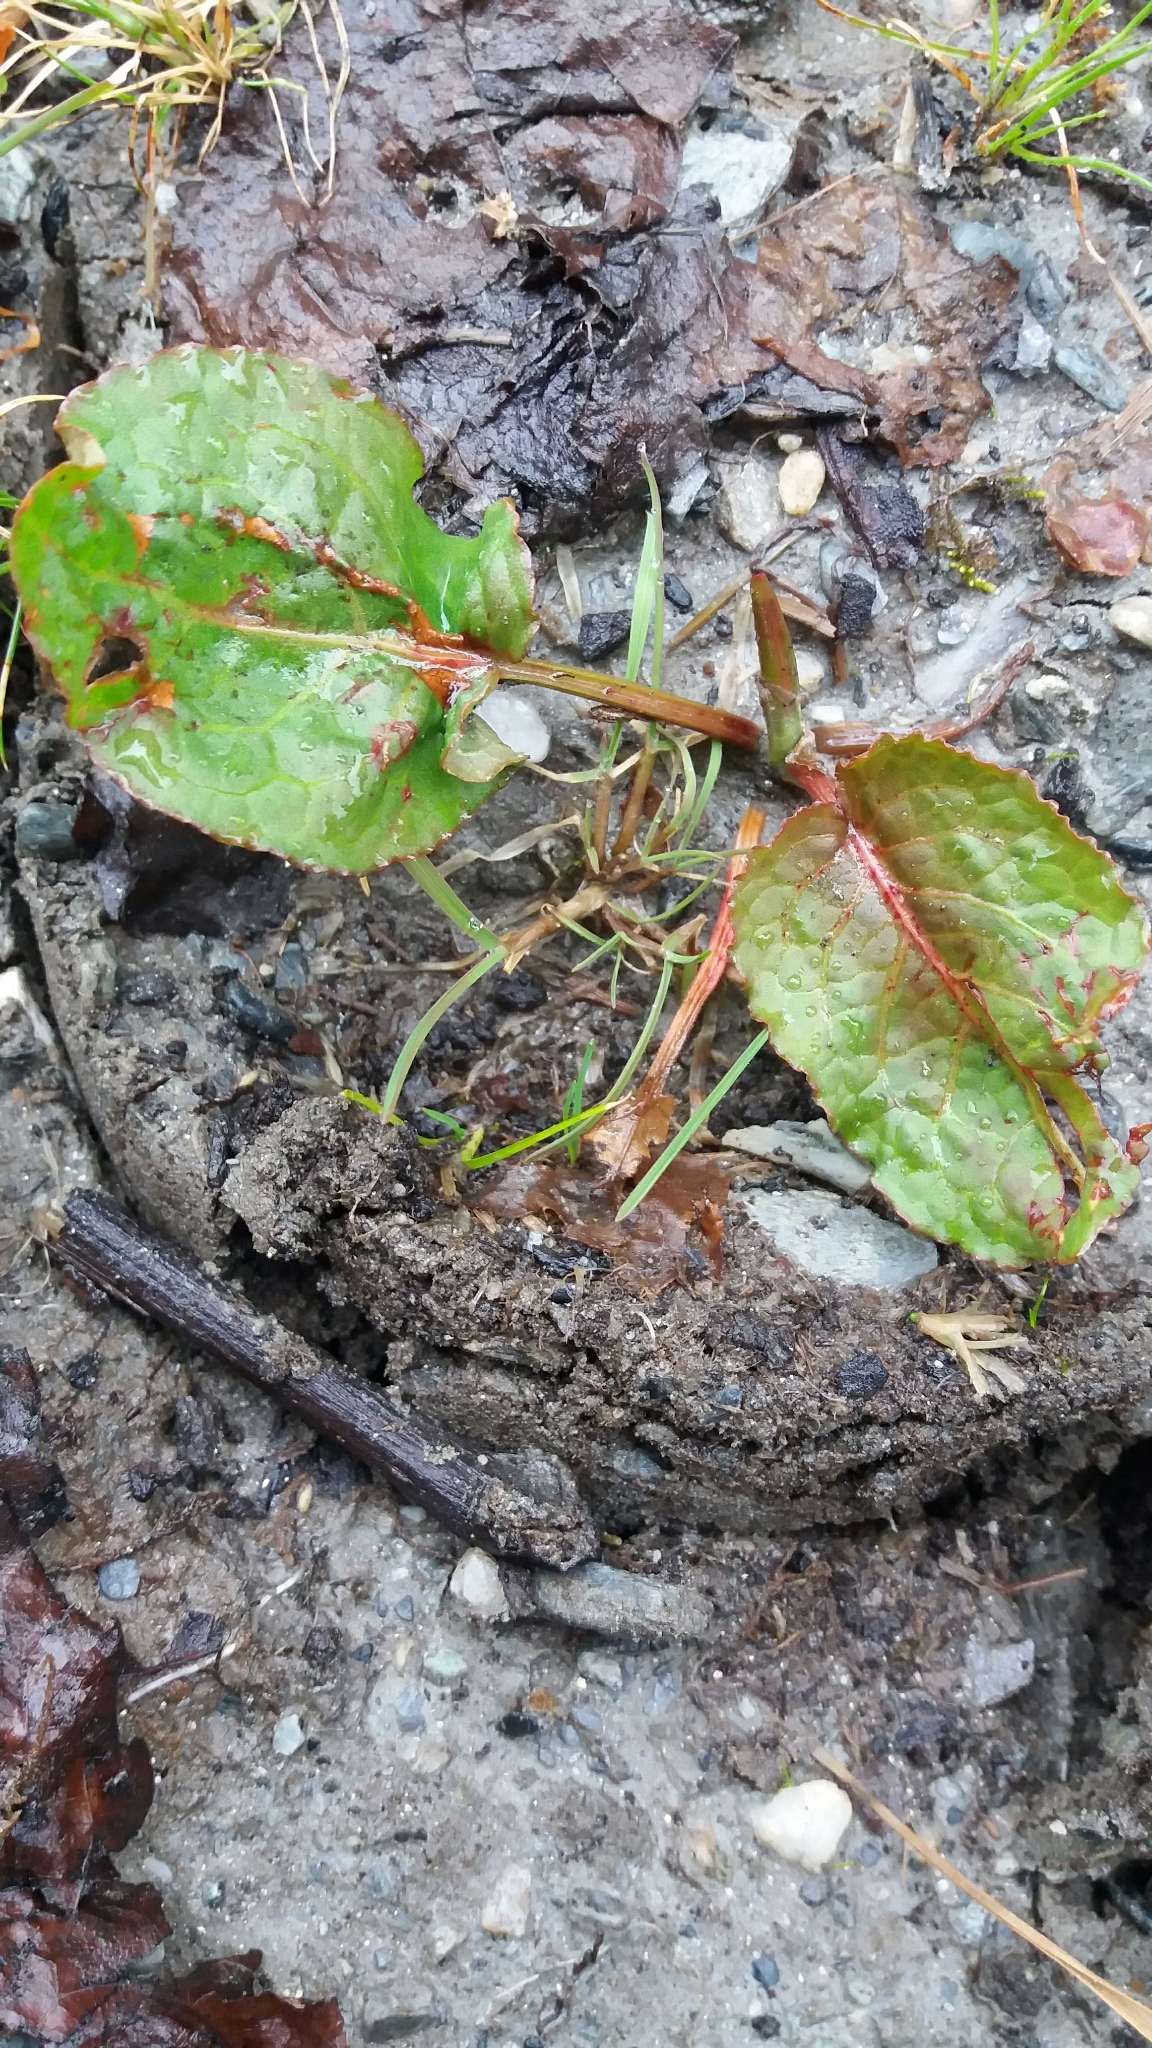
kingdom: Plantae
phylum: Tracheophyta
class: Magnoliopsida
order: Caryophyllales
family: Polygonaceae
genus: Rumex
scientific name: Rumex obtusifolius
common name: Bitter dock
